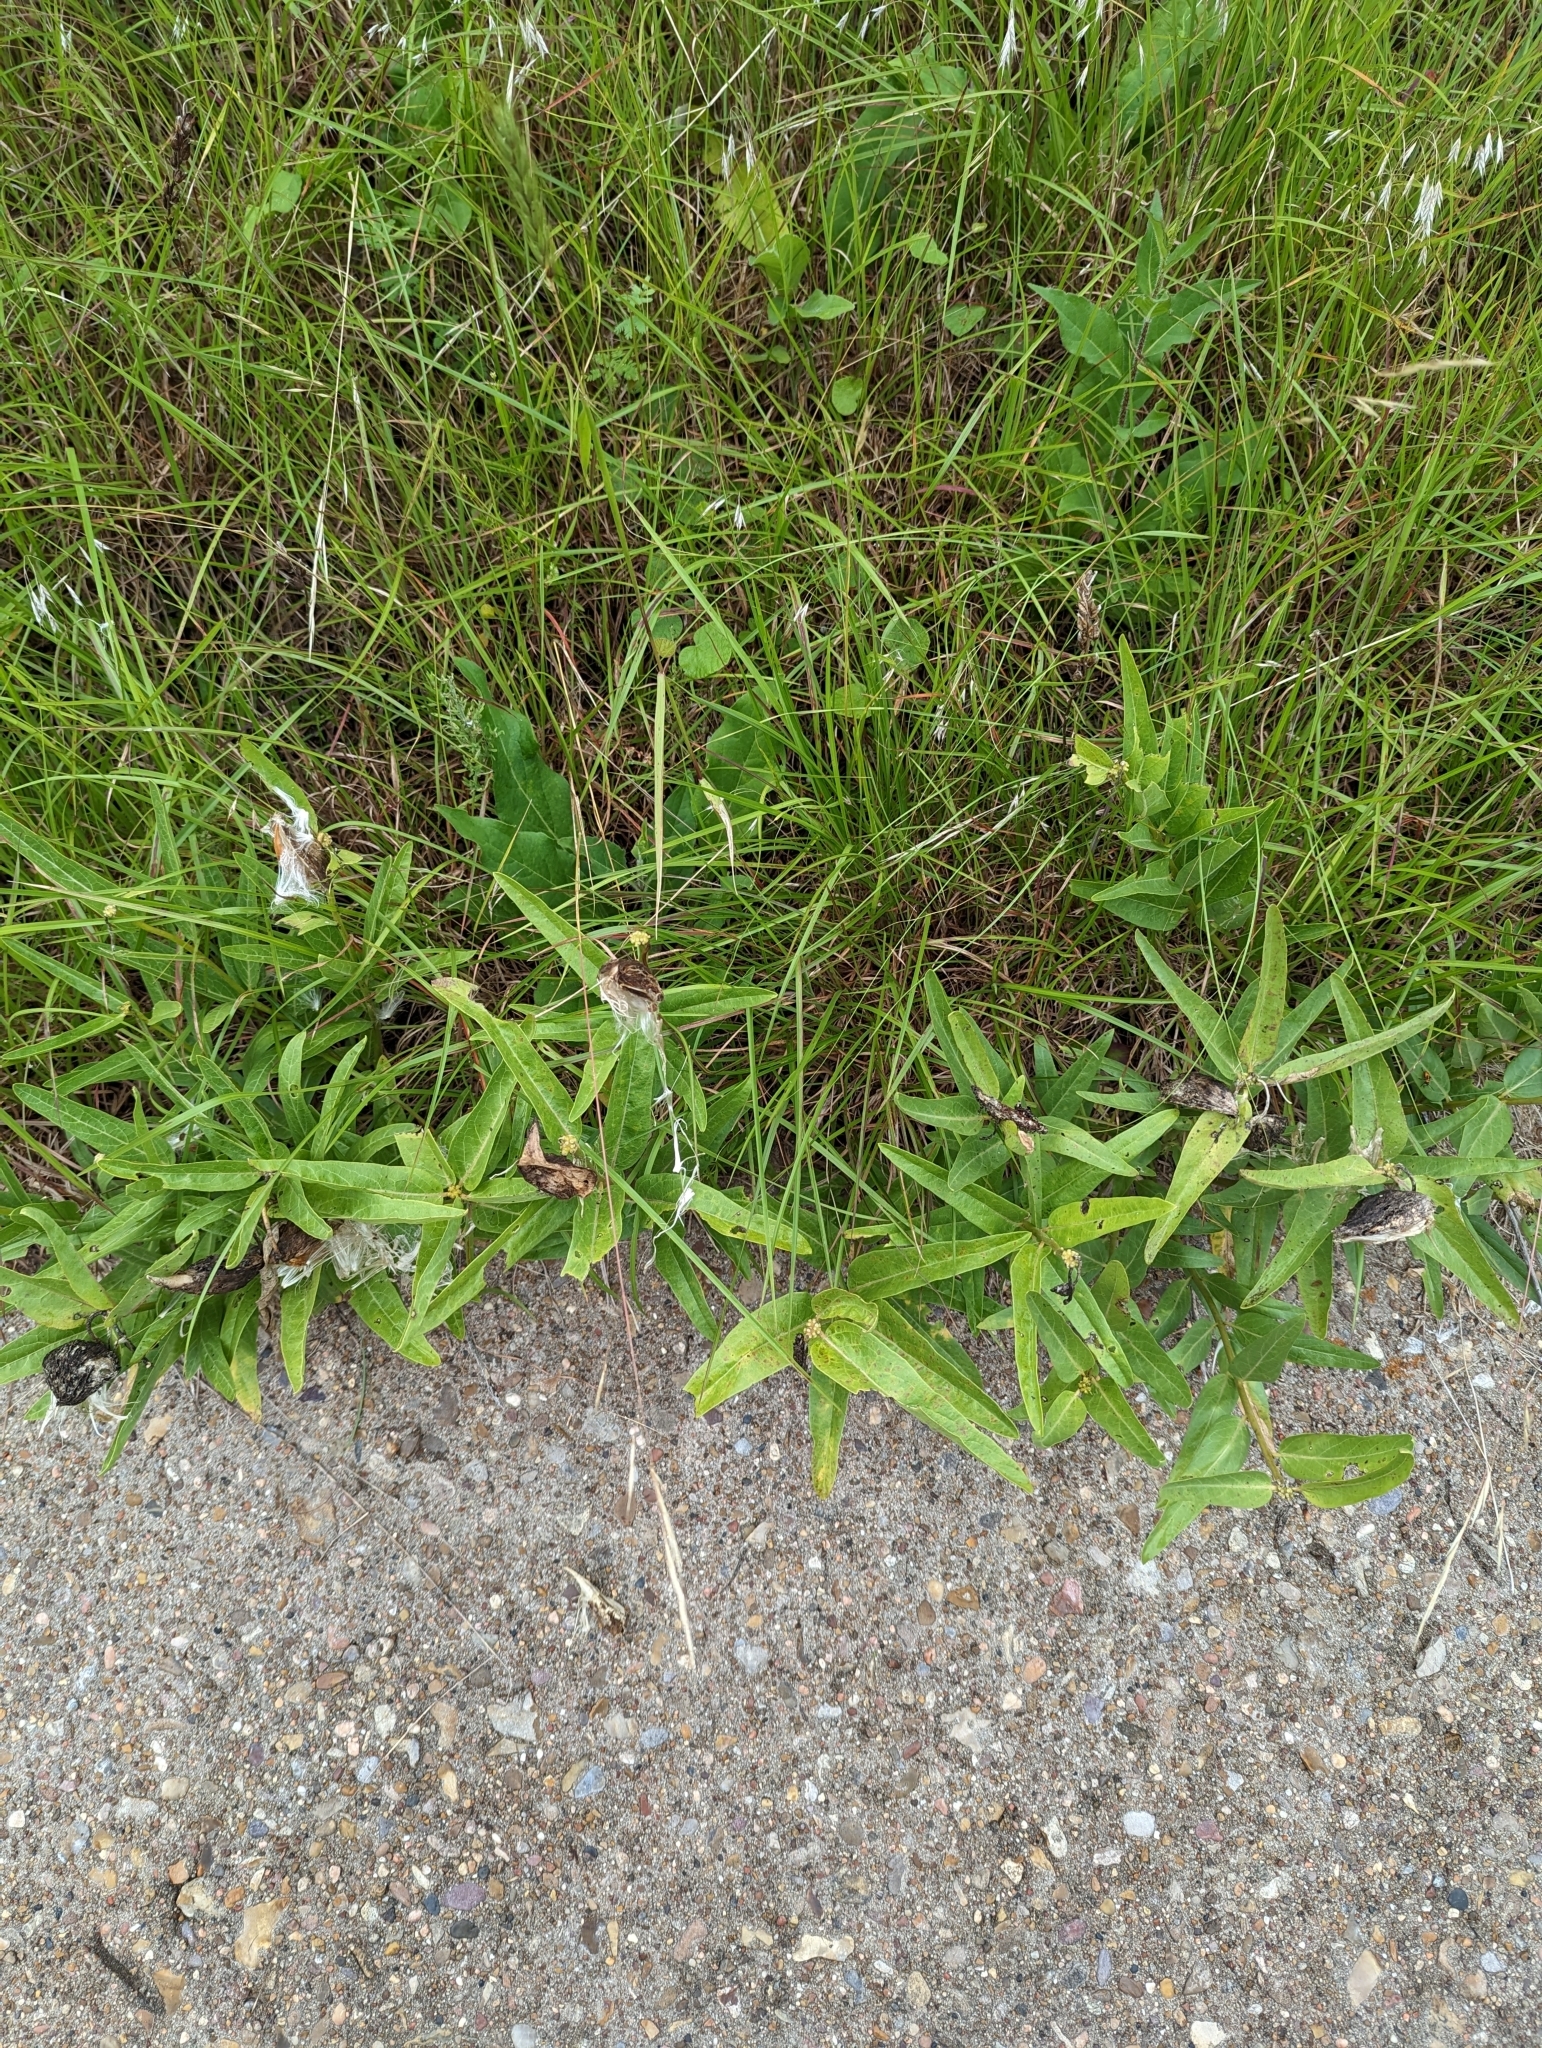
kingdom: Plantae
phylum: Tracheophyta
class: Magnoliopsida
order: Gentianales
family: Apocynaceae
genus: Asclepias
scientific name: Asclepias asperula
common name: Antelope horns
